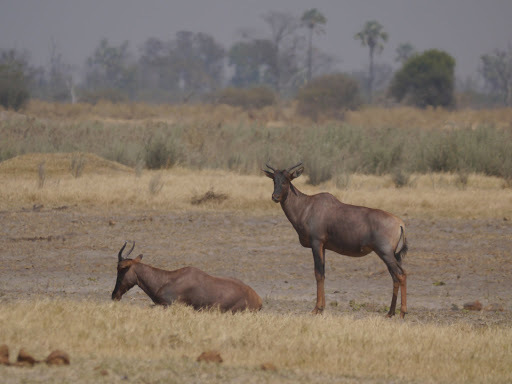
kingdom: Animalia
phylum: Chordata
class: Mammalia
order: Artiodactyla
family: Bovidae
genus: Damaliscus
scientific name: Damaliscus lunatus
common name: Common tsessebe
